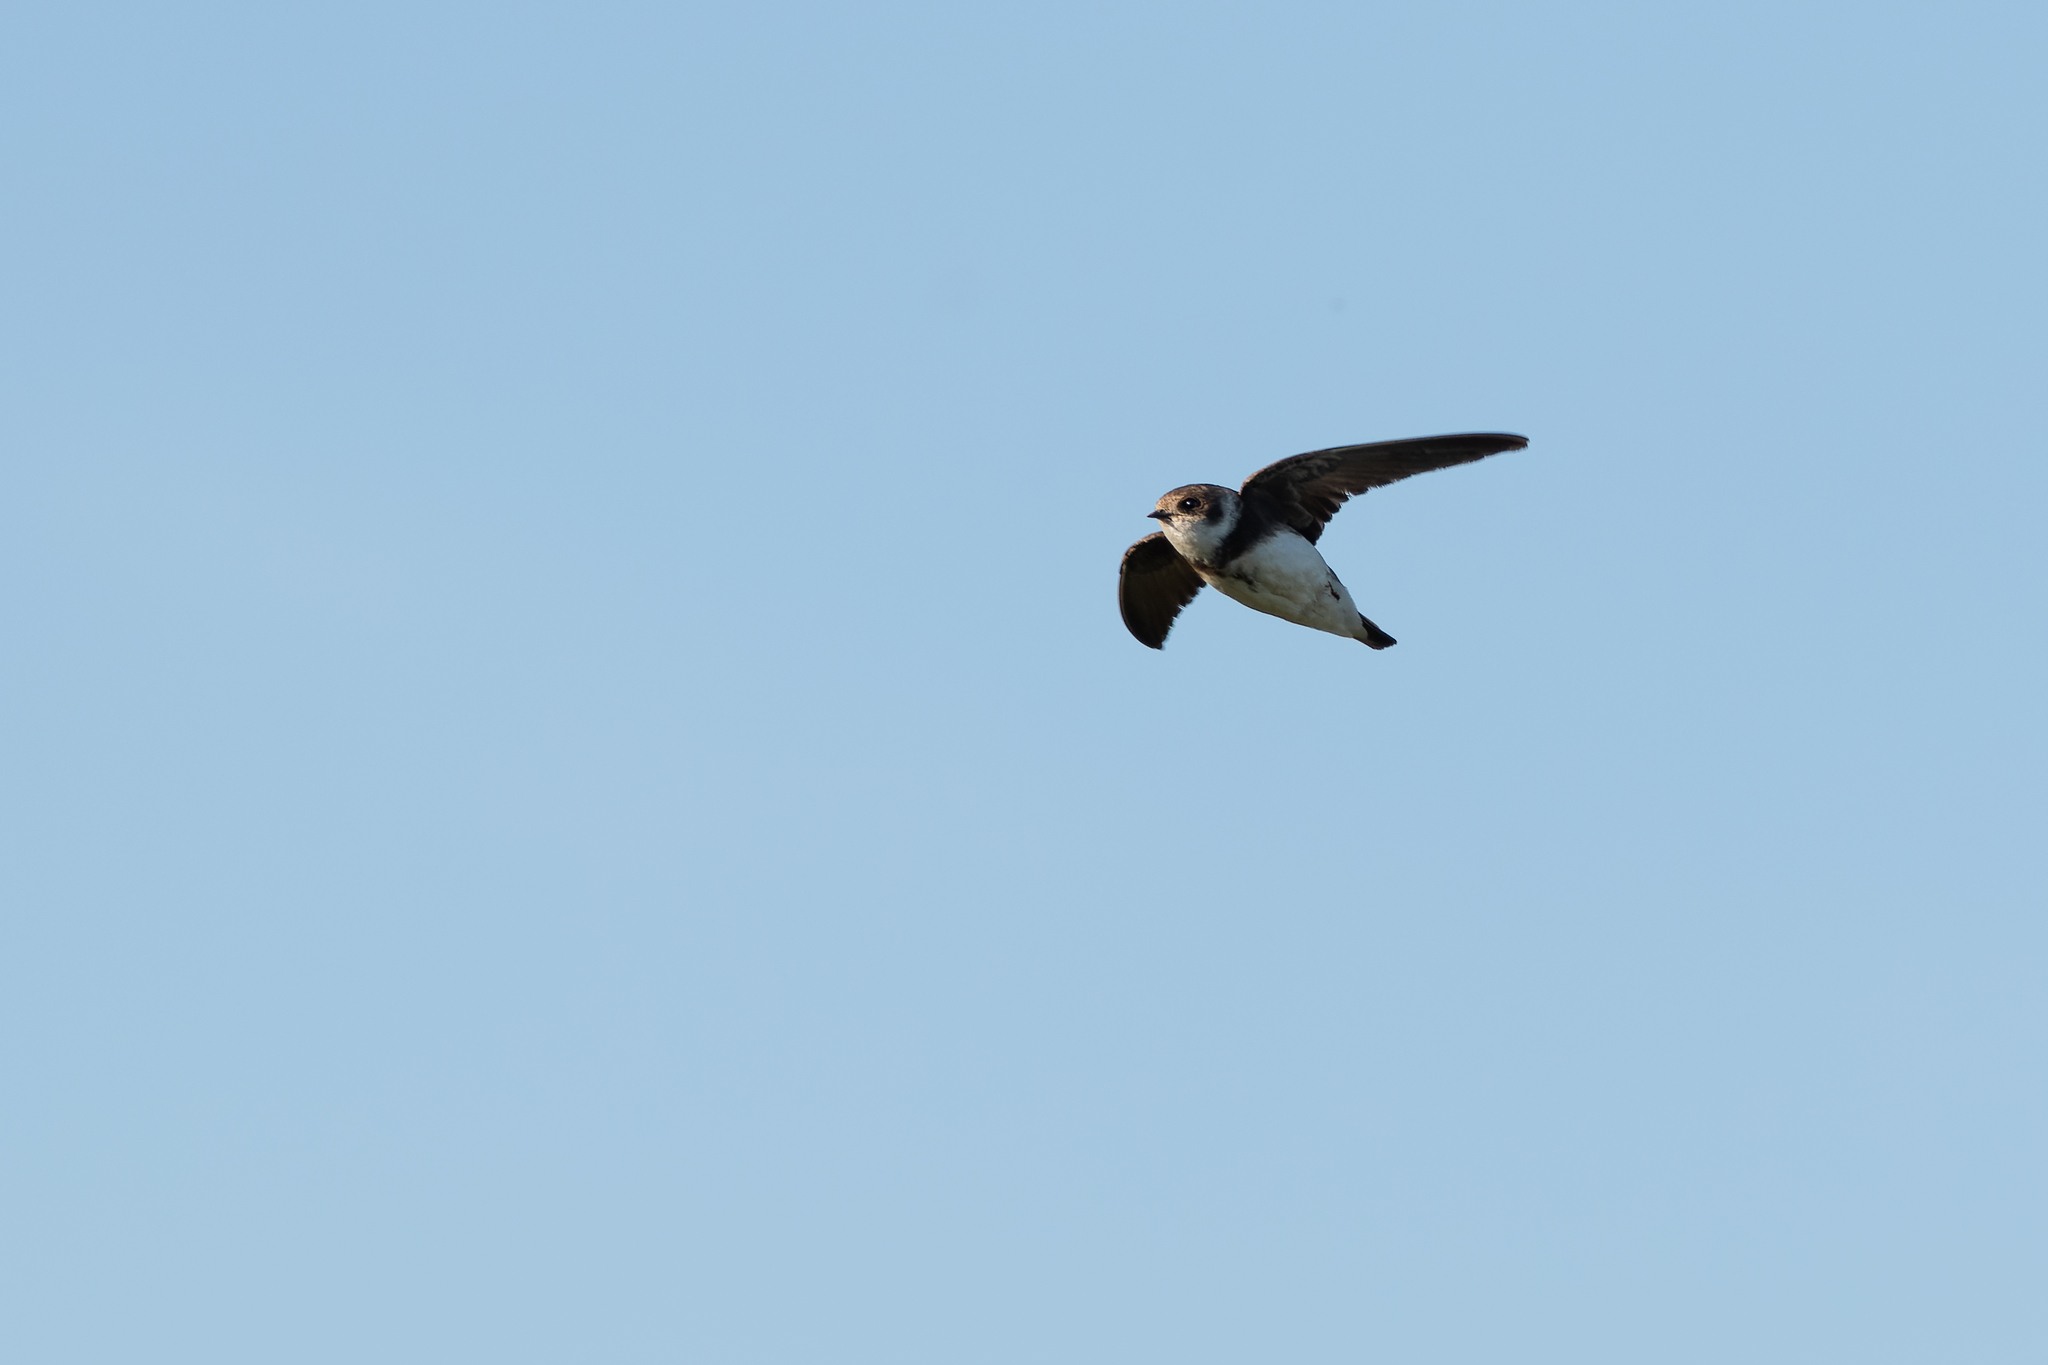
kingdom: Animalia
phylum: Chordata
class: Aves
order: Passeriformes
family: Hirundinidae
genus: Riparia
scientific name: Riparia riparia
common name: Sand martin
